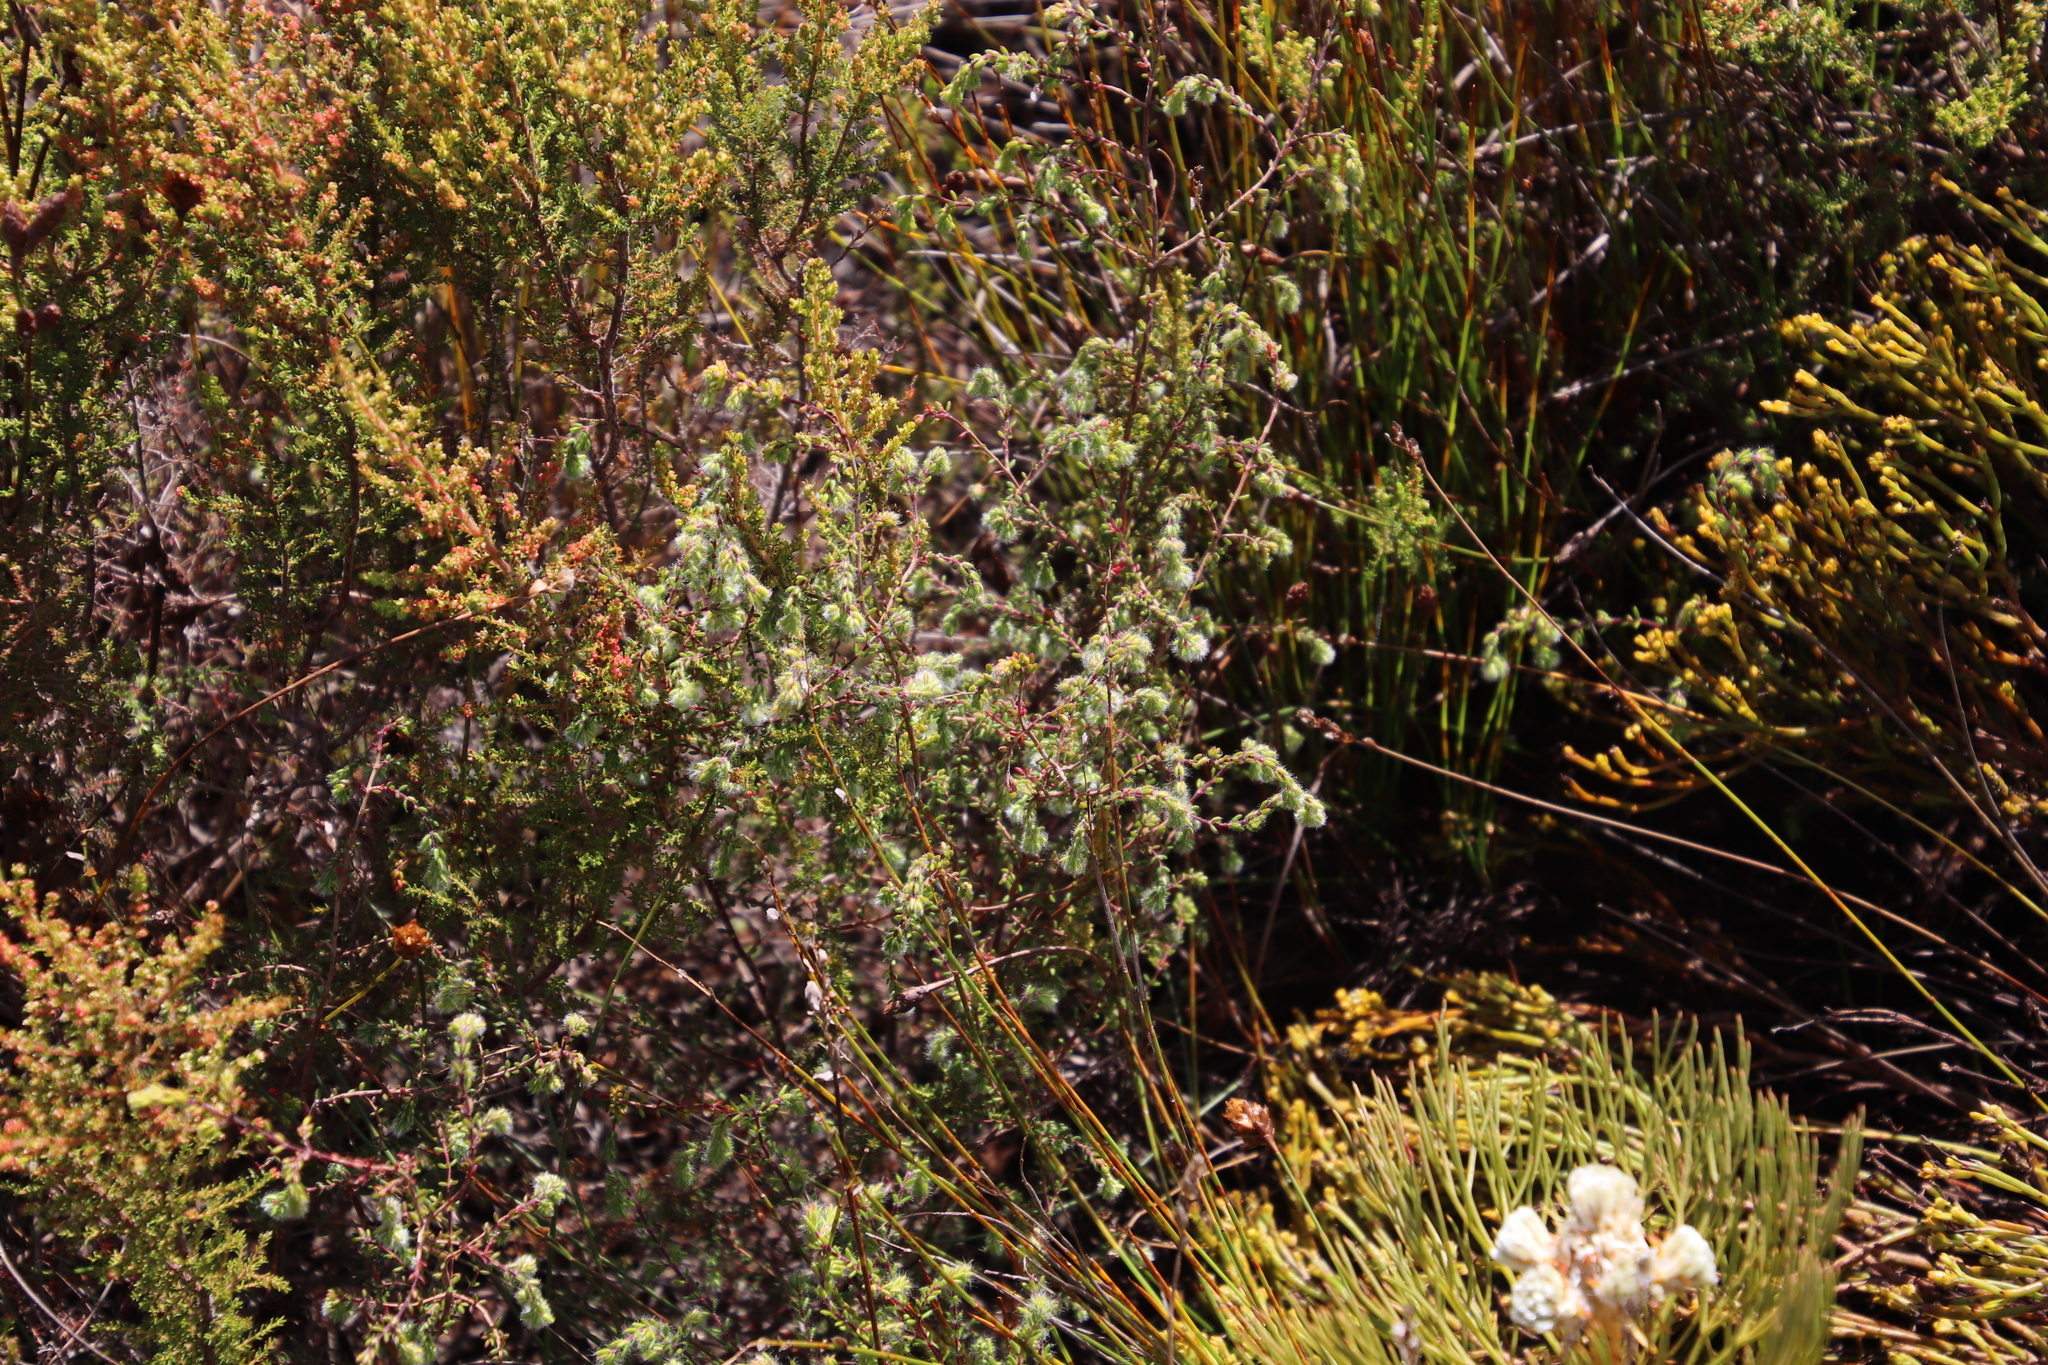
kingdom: Plantae
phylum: Tracheophyta
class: Magnoliopsida
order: Ericales
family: Ericaceae
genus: Erica
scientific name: Erica capitata
